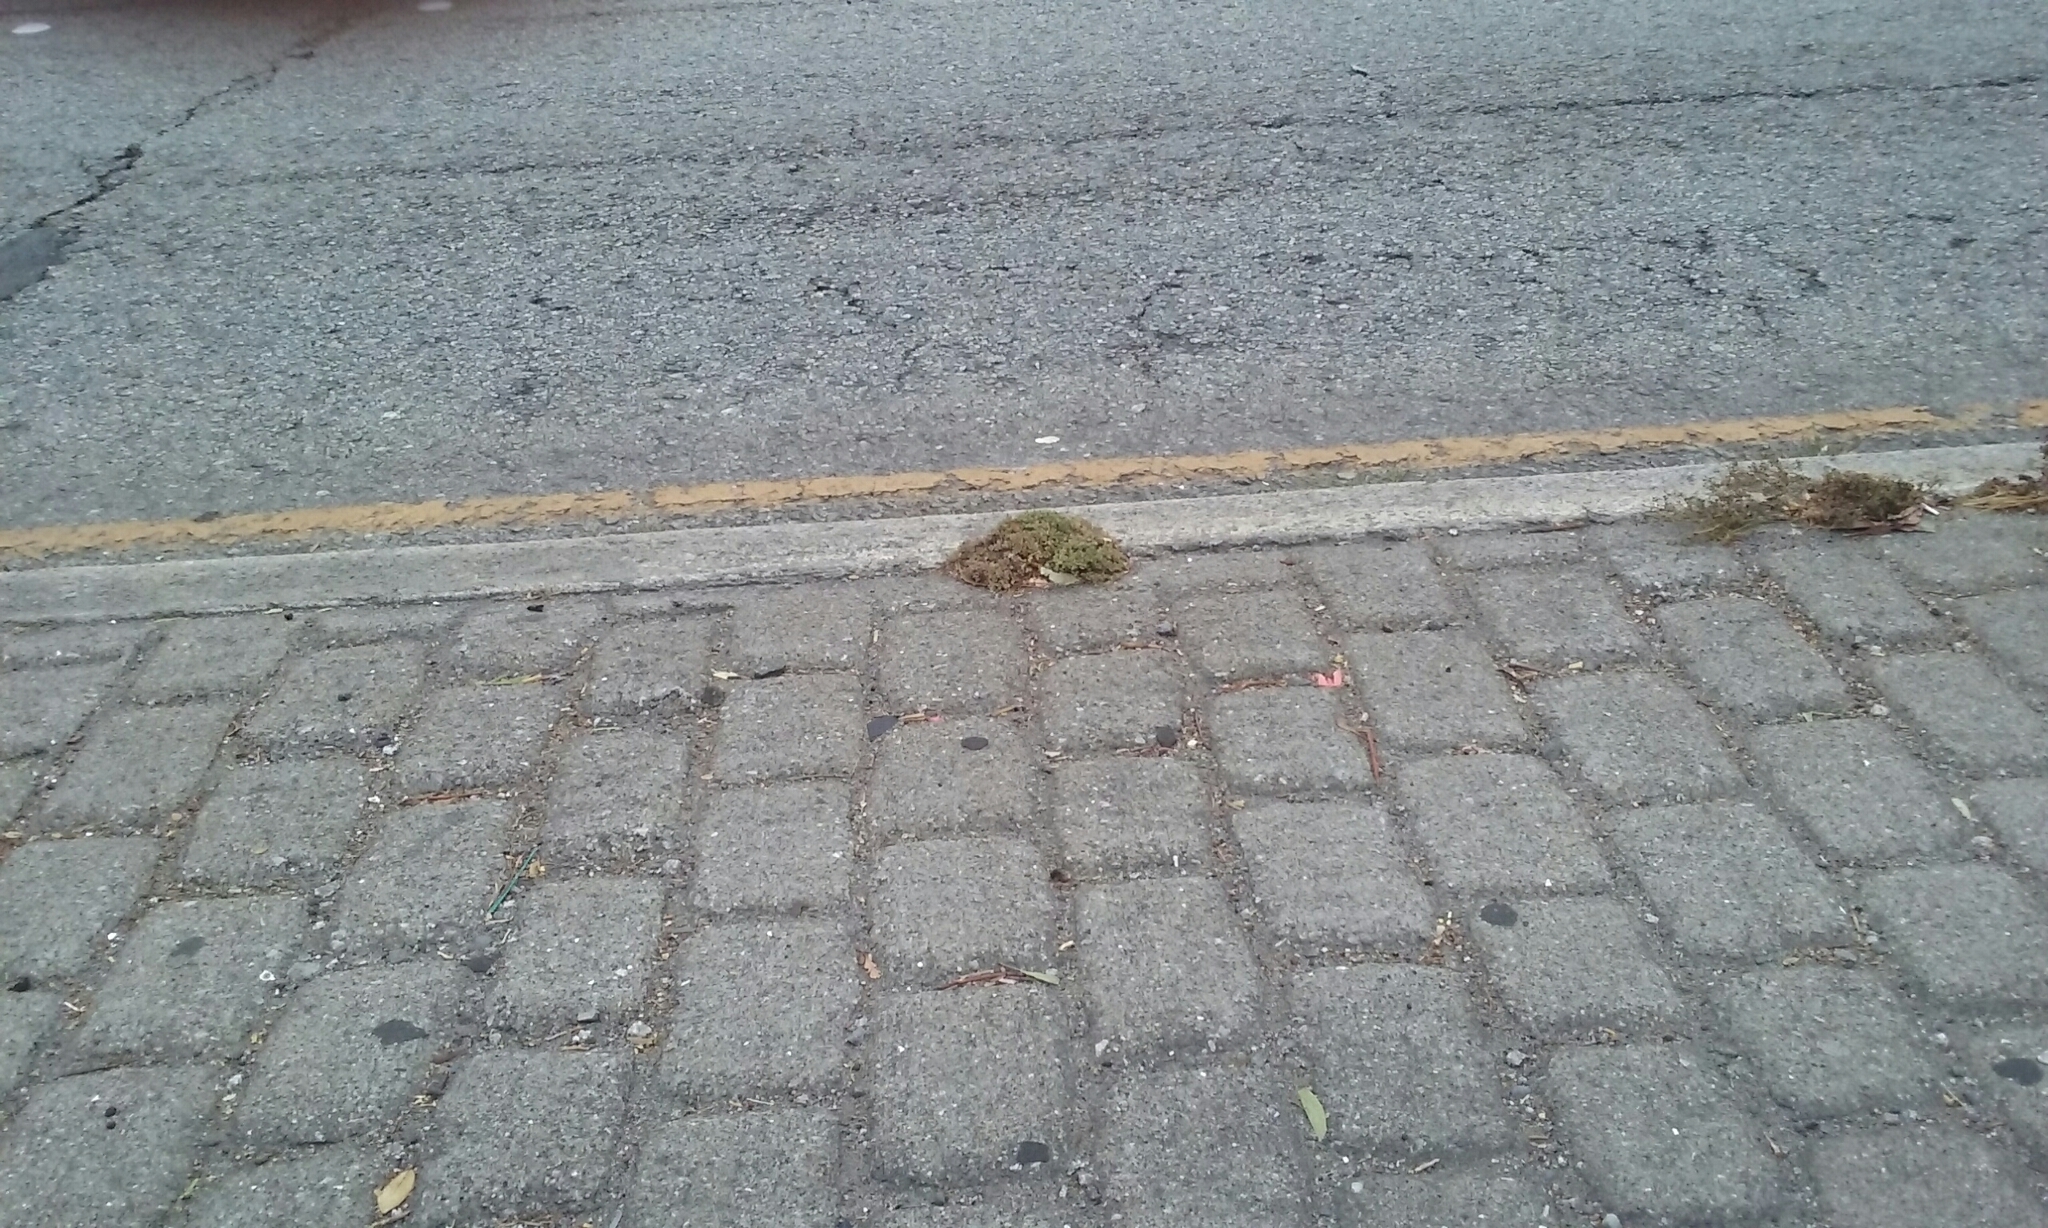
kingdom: Plantae
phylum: Tracheophyta
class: Magnoliopsida
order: Caryophyllales
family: Caryophyllaceae
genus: Polycarpon
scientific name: Polycarpon tetraphyllum
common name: Four-leaved all-seed
